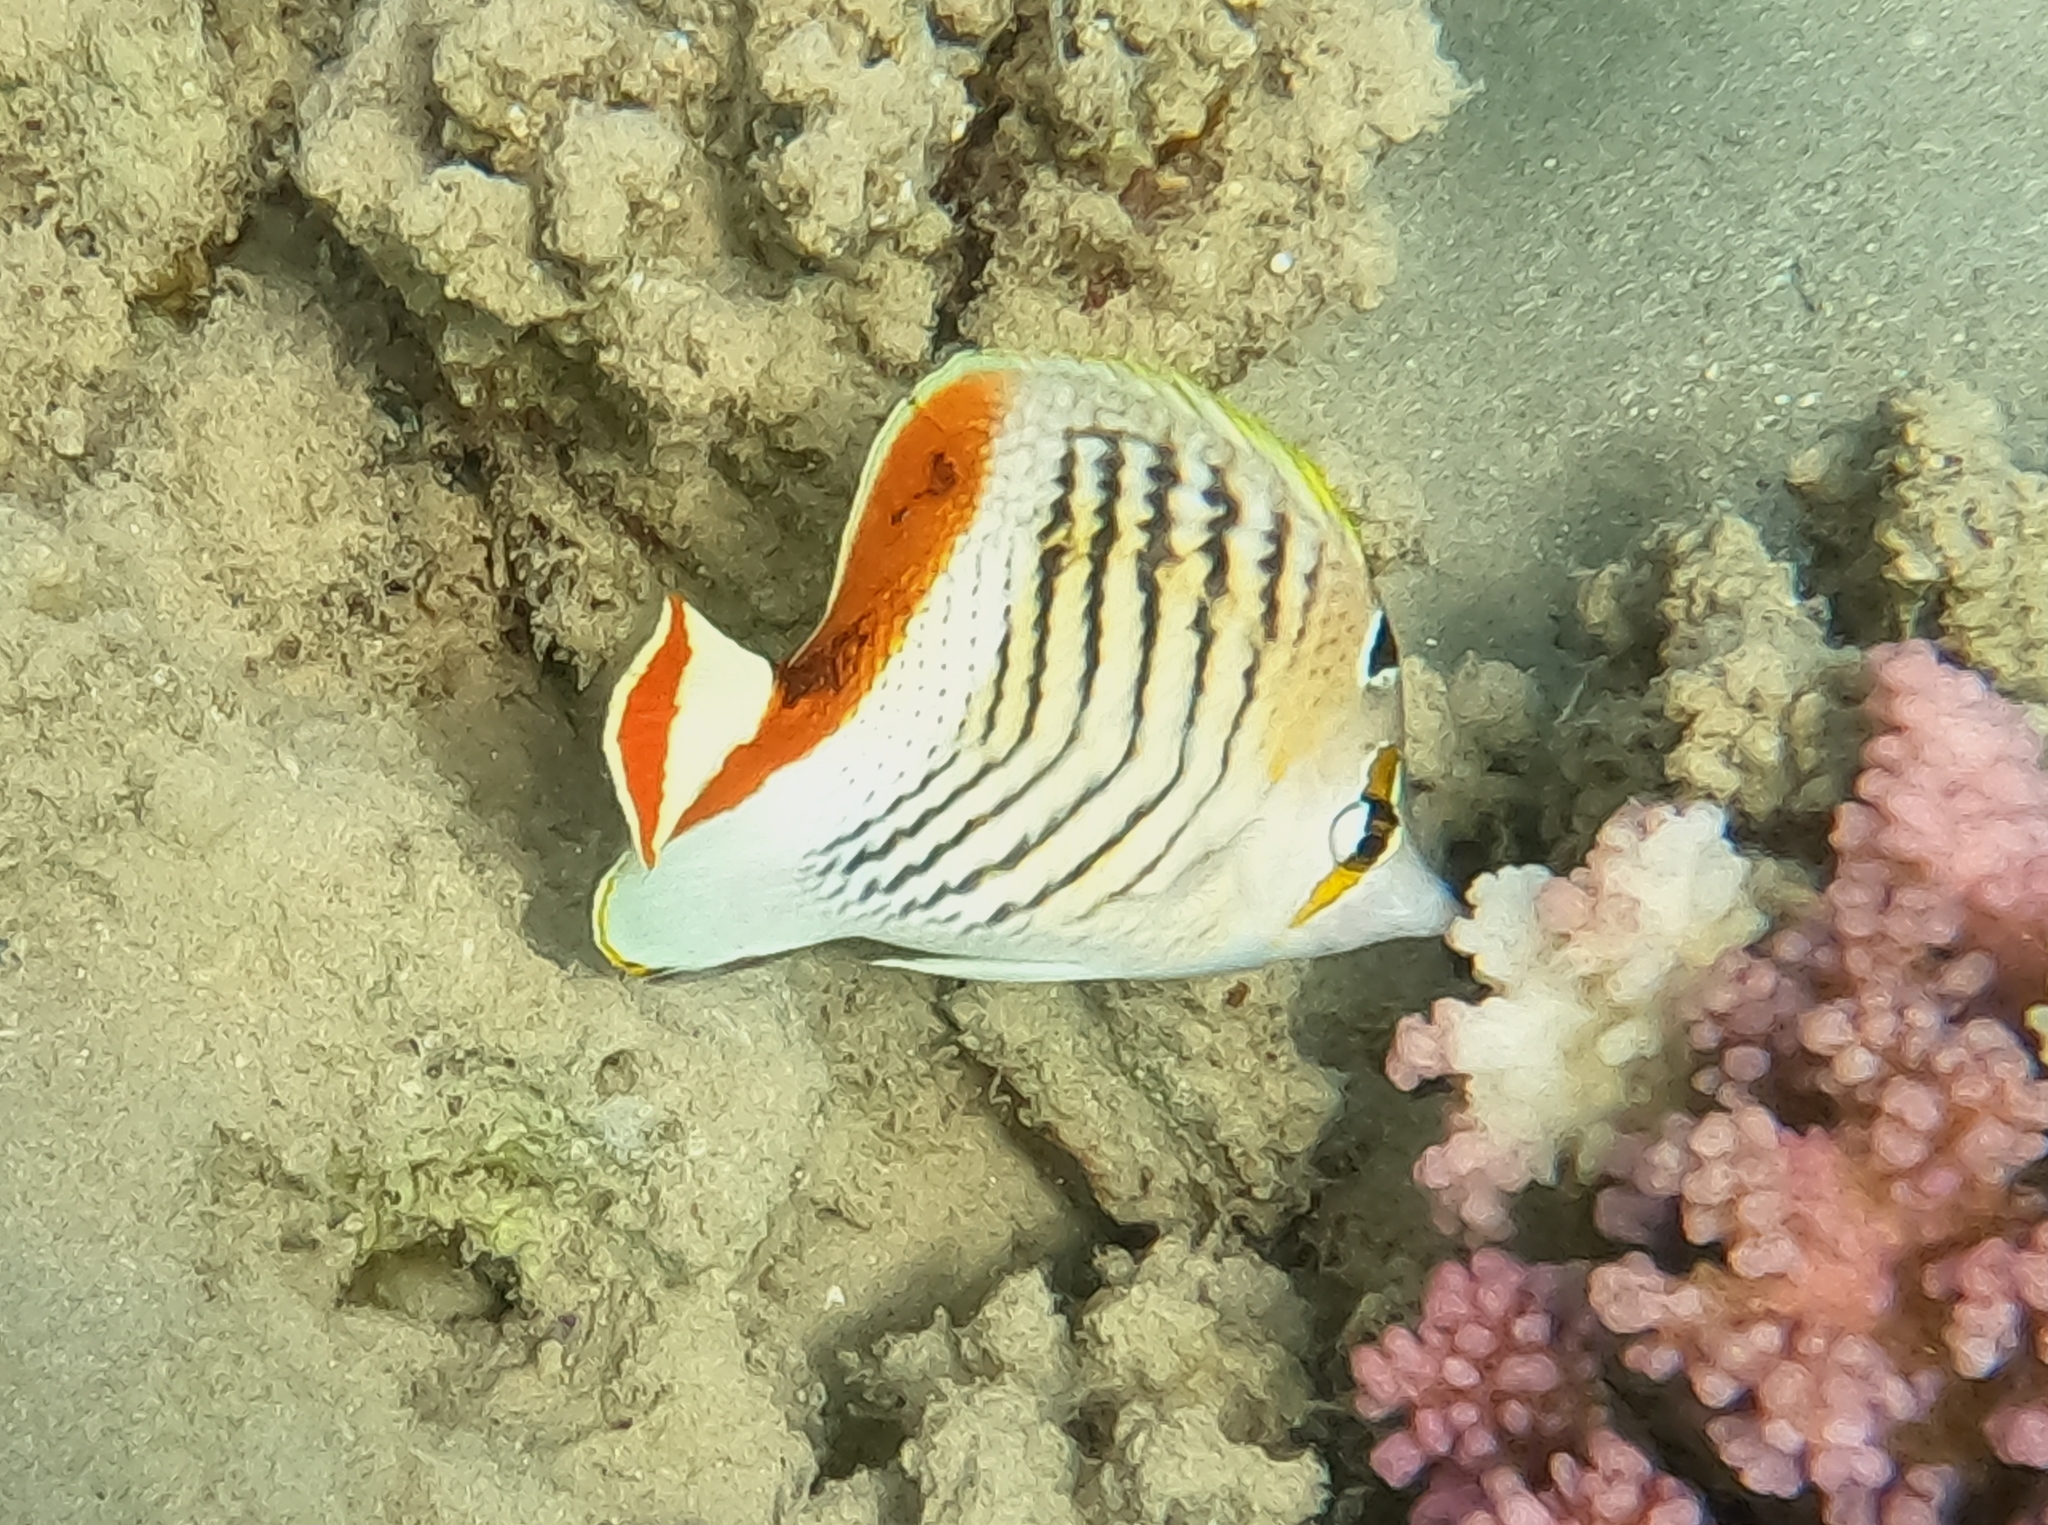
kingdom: Animalia
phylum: Chordata
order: Perciformes
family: Chaetodontidae
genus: Chaetodon
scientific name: Chaetodon paucifasciatus
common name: Crown butterflyfish
